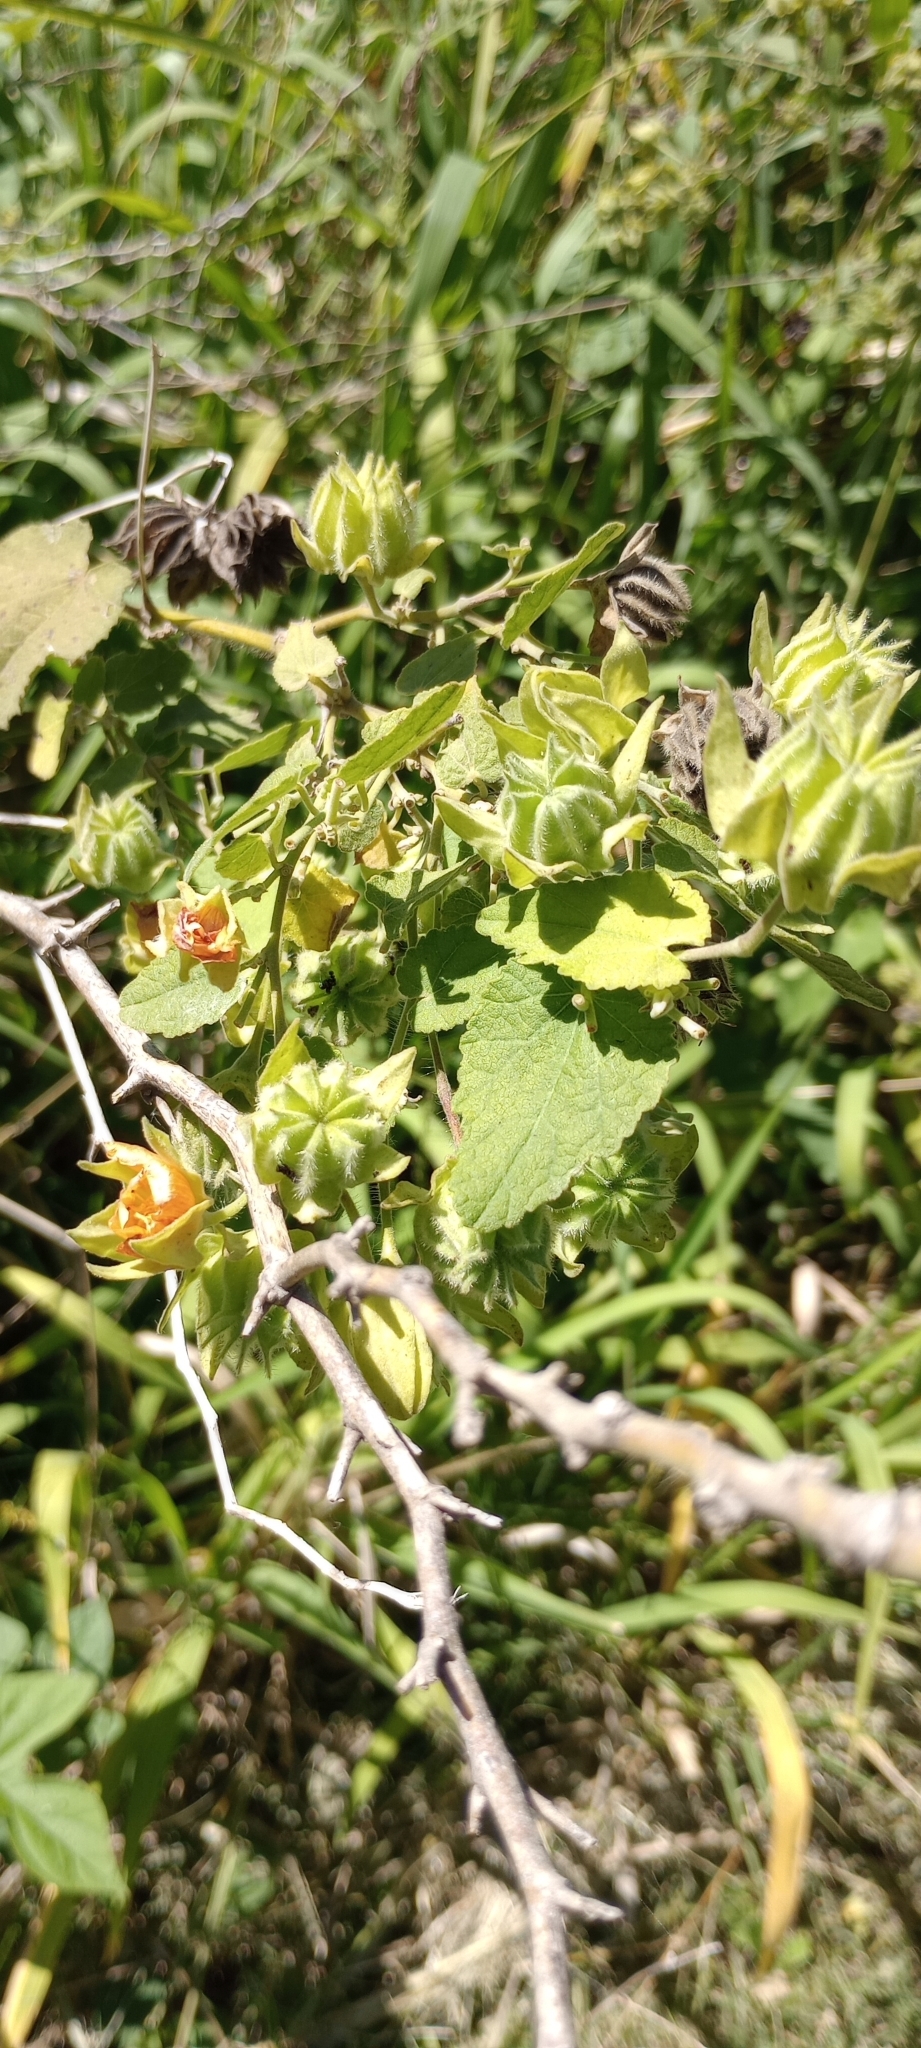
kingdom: Plantae
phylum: Tracheophyta
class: Magnoliopsida
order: Malvales
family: Malvaceae
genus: Abutilon
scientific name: Abutilon grandifolium
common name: Hairy abutilon
